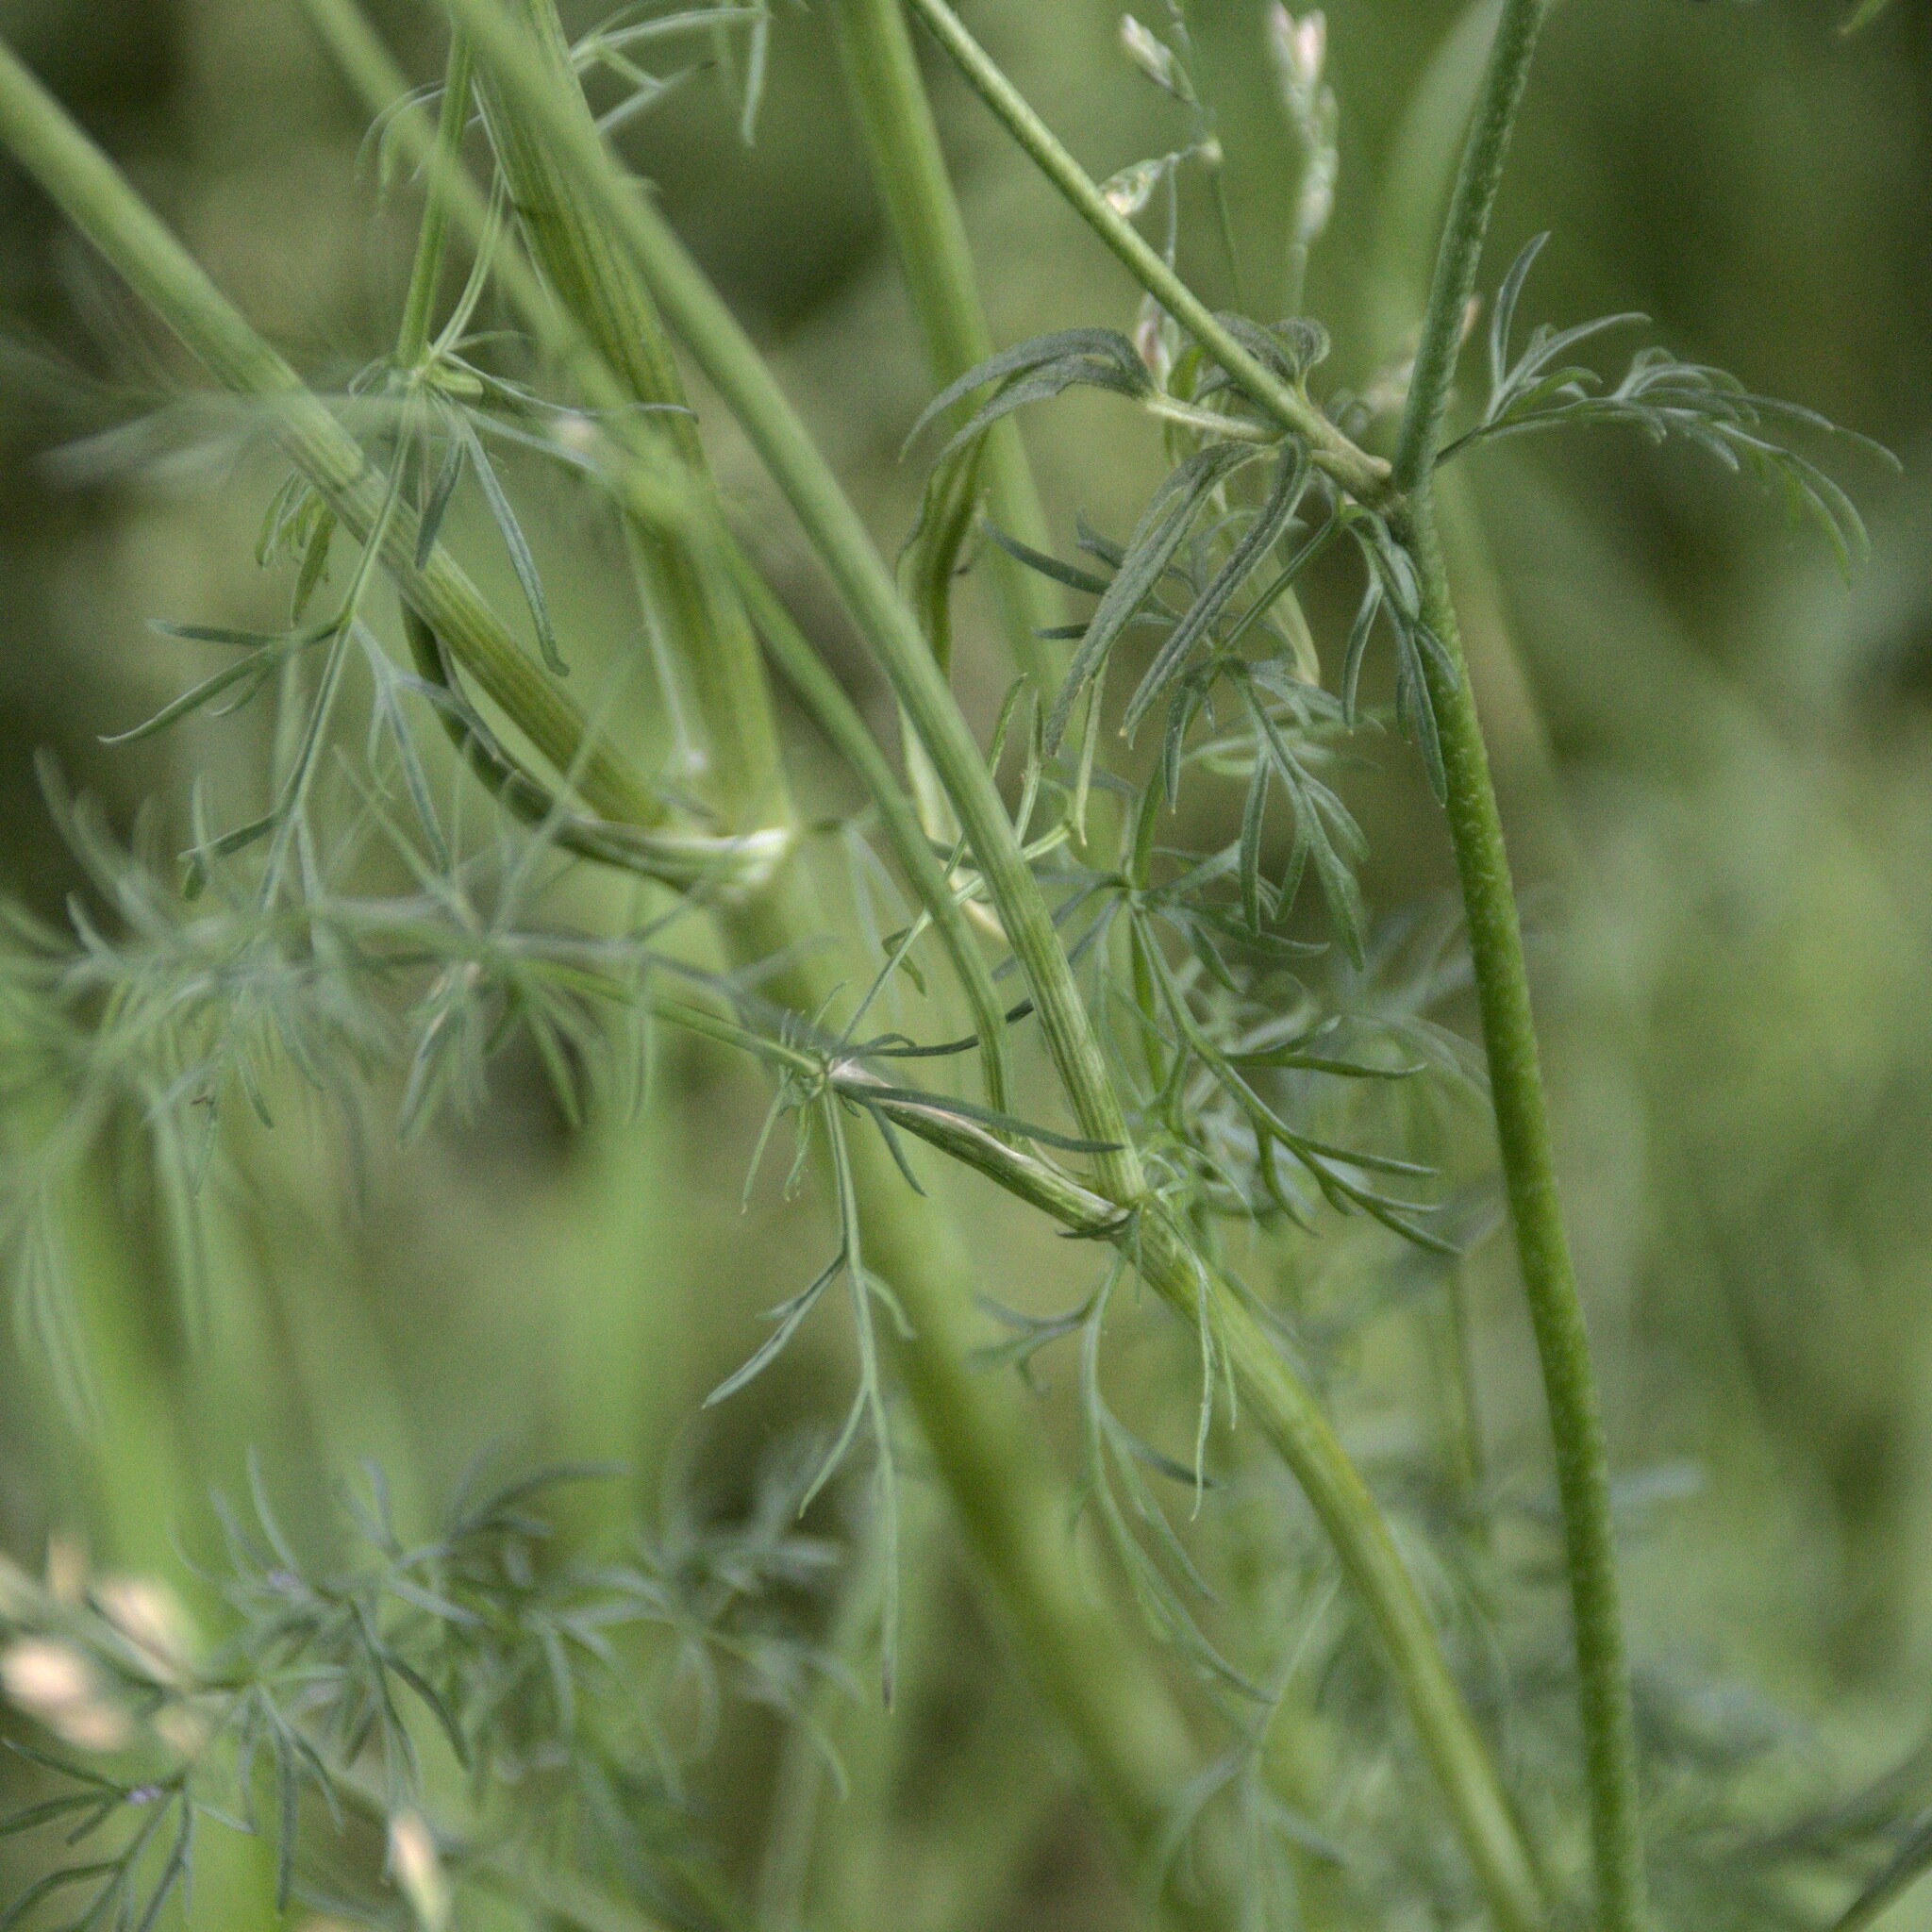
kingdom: Plantae
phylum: Tracheophyta
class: Magnoliopsida
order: Apiales
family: Apiaceae
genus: Carum
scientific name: Carum carvi
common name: Caraway
